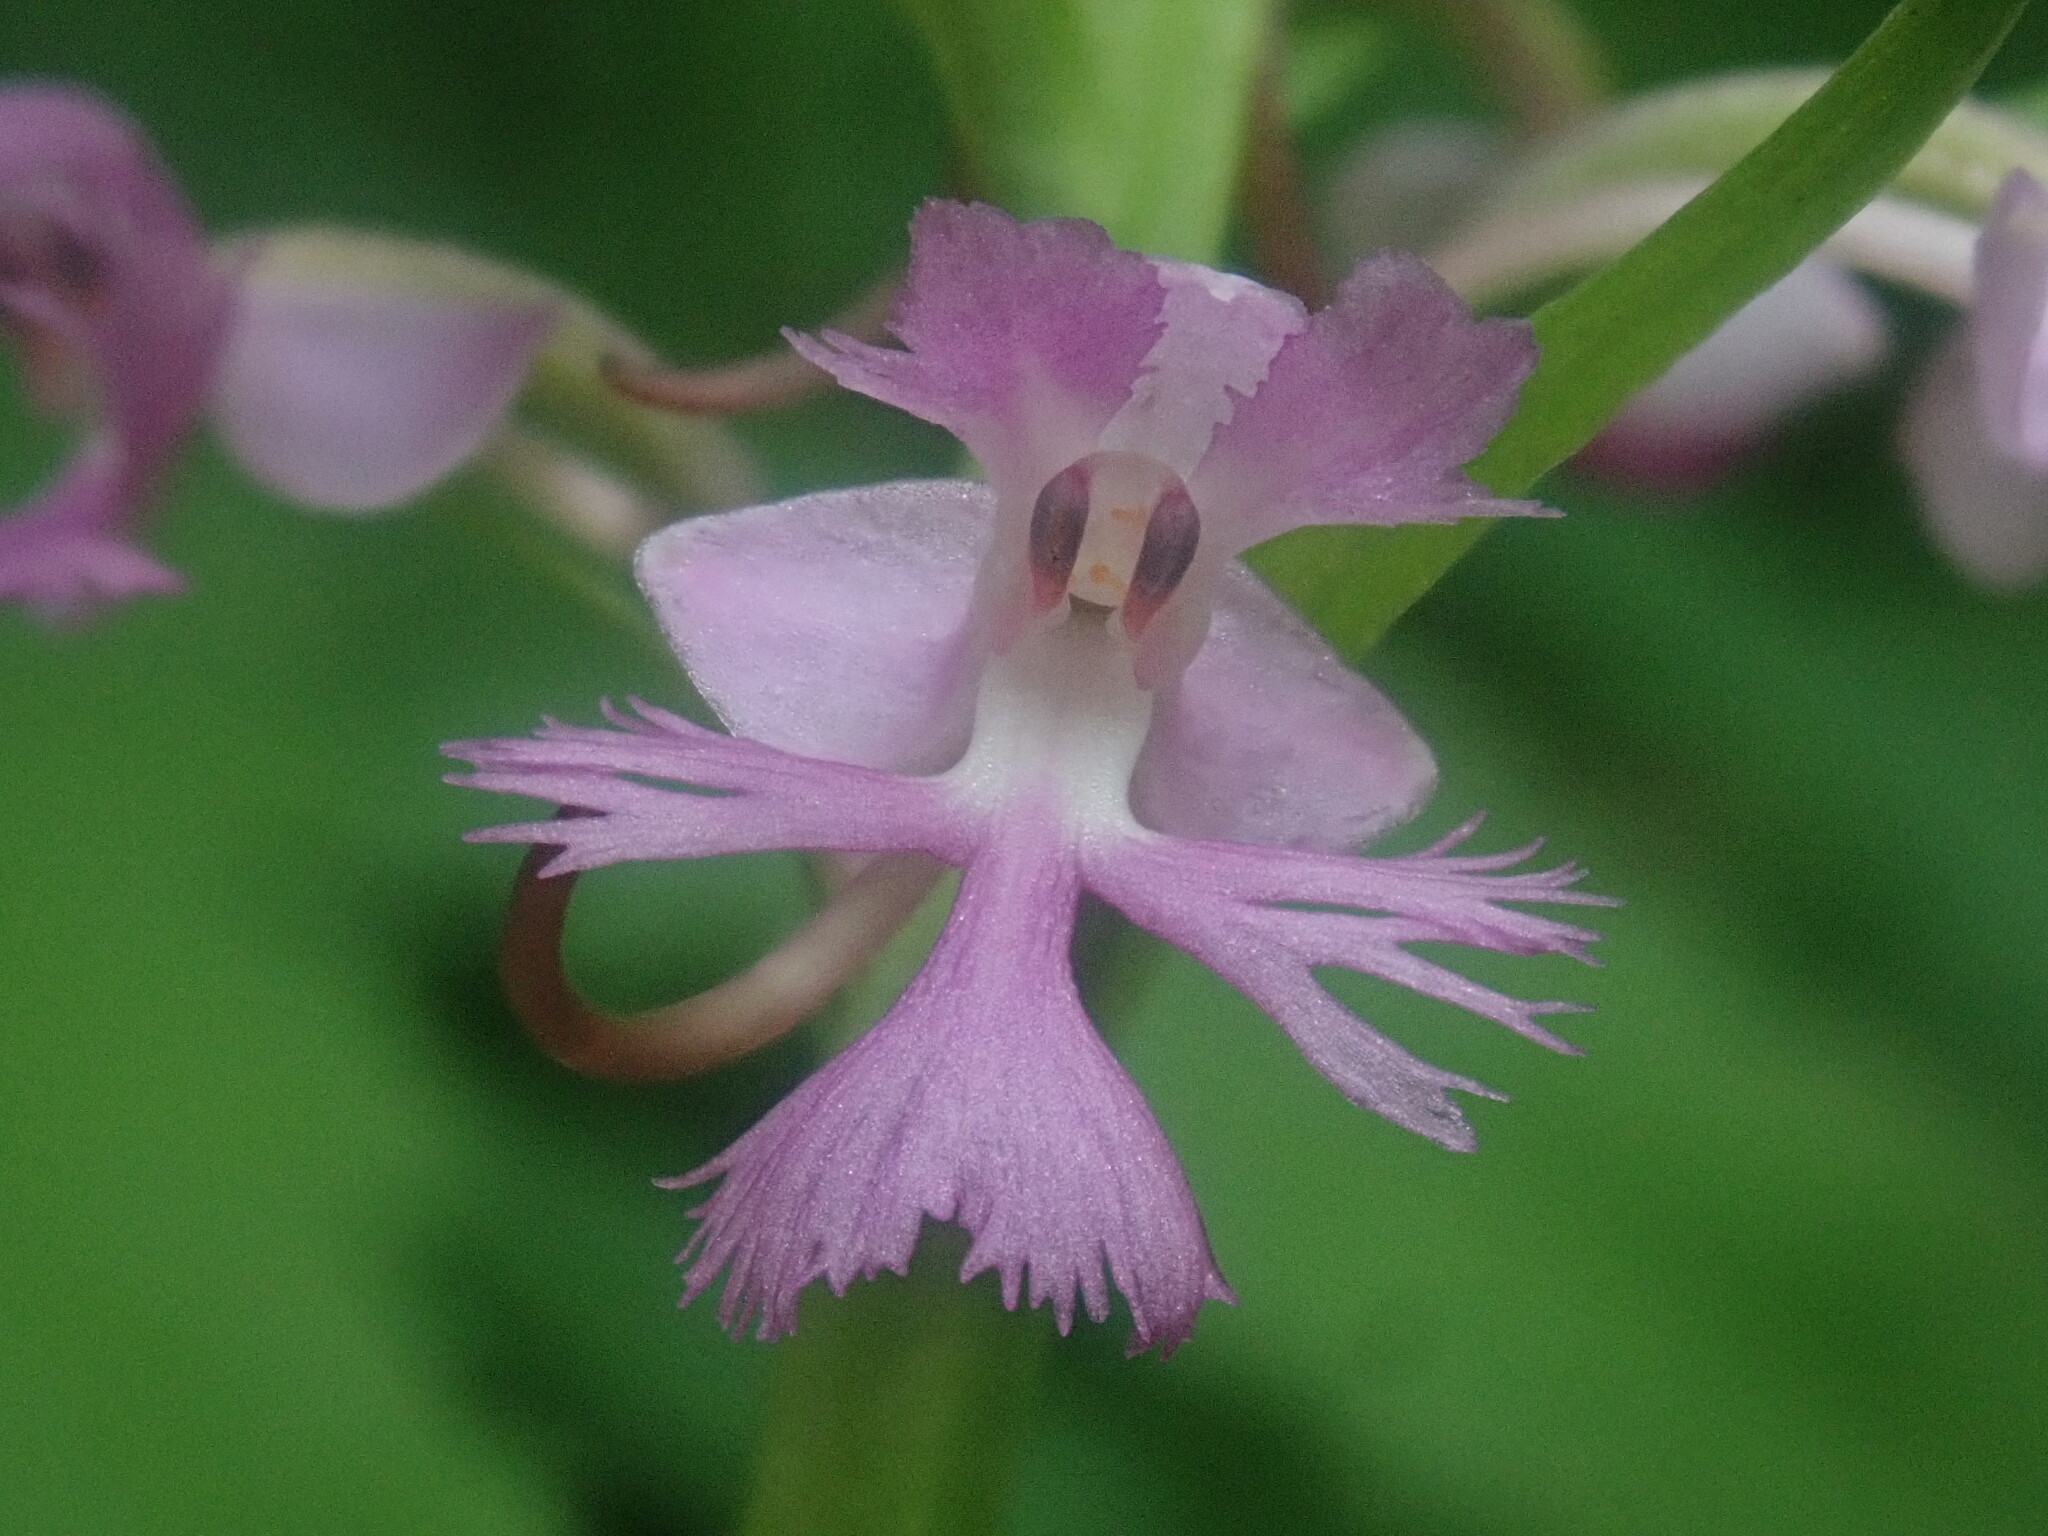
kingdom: Plantae
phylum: Tracheophyta
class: Liliopsida
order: Asparagales
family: Orchidaceae
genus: Platanthera
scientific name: Platanthera psycodes
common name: Lesser purple fringed orchid
